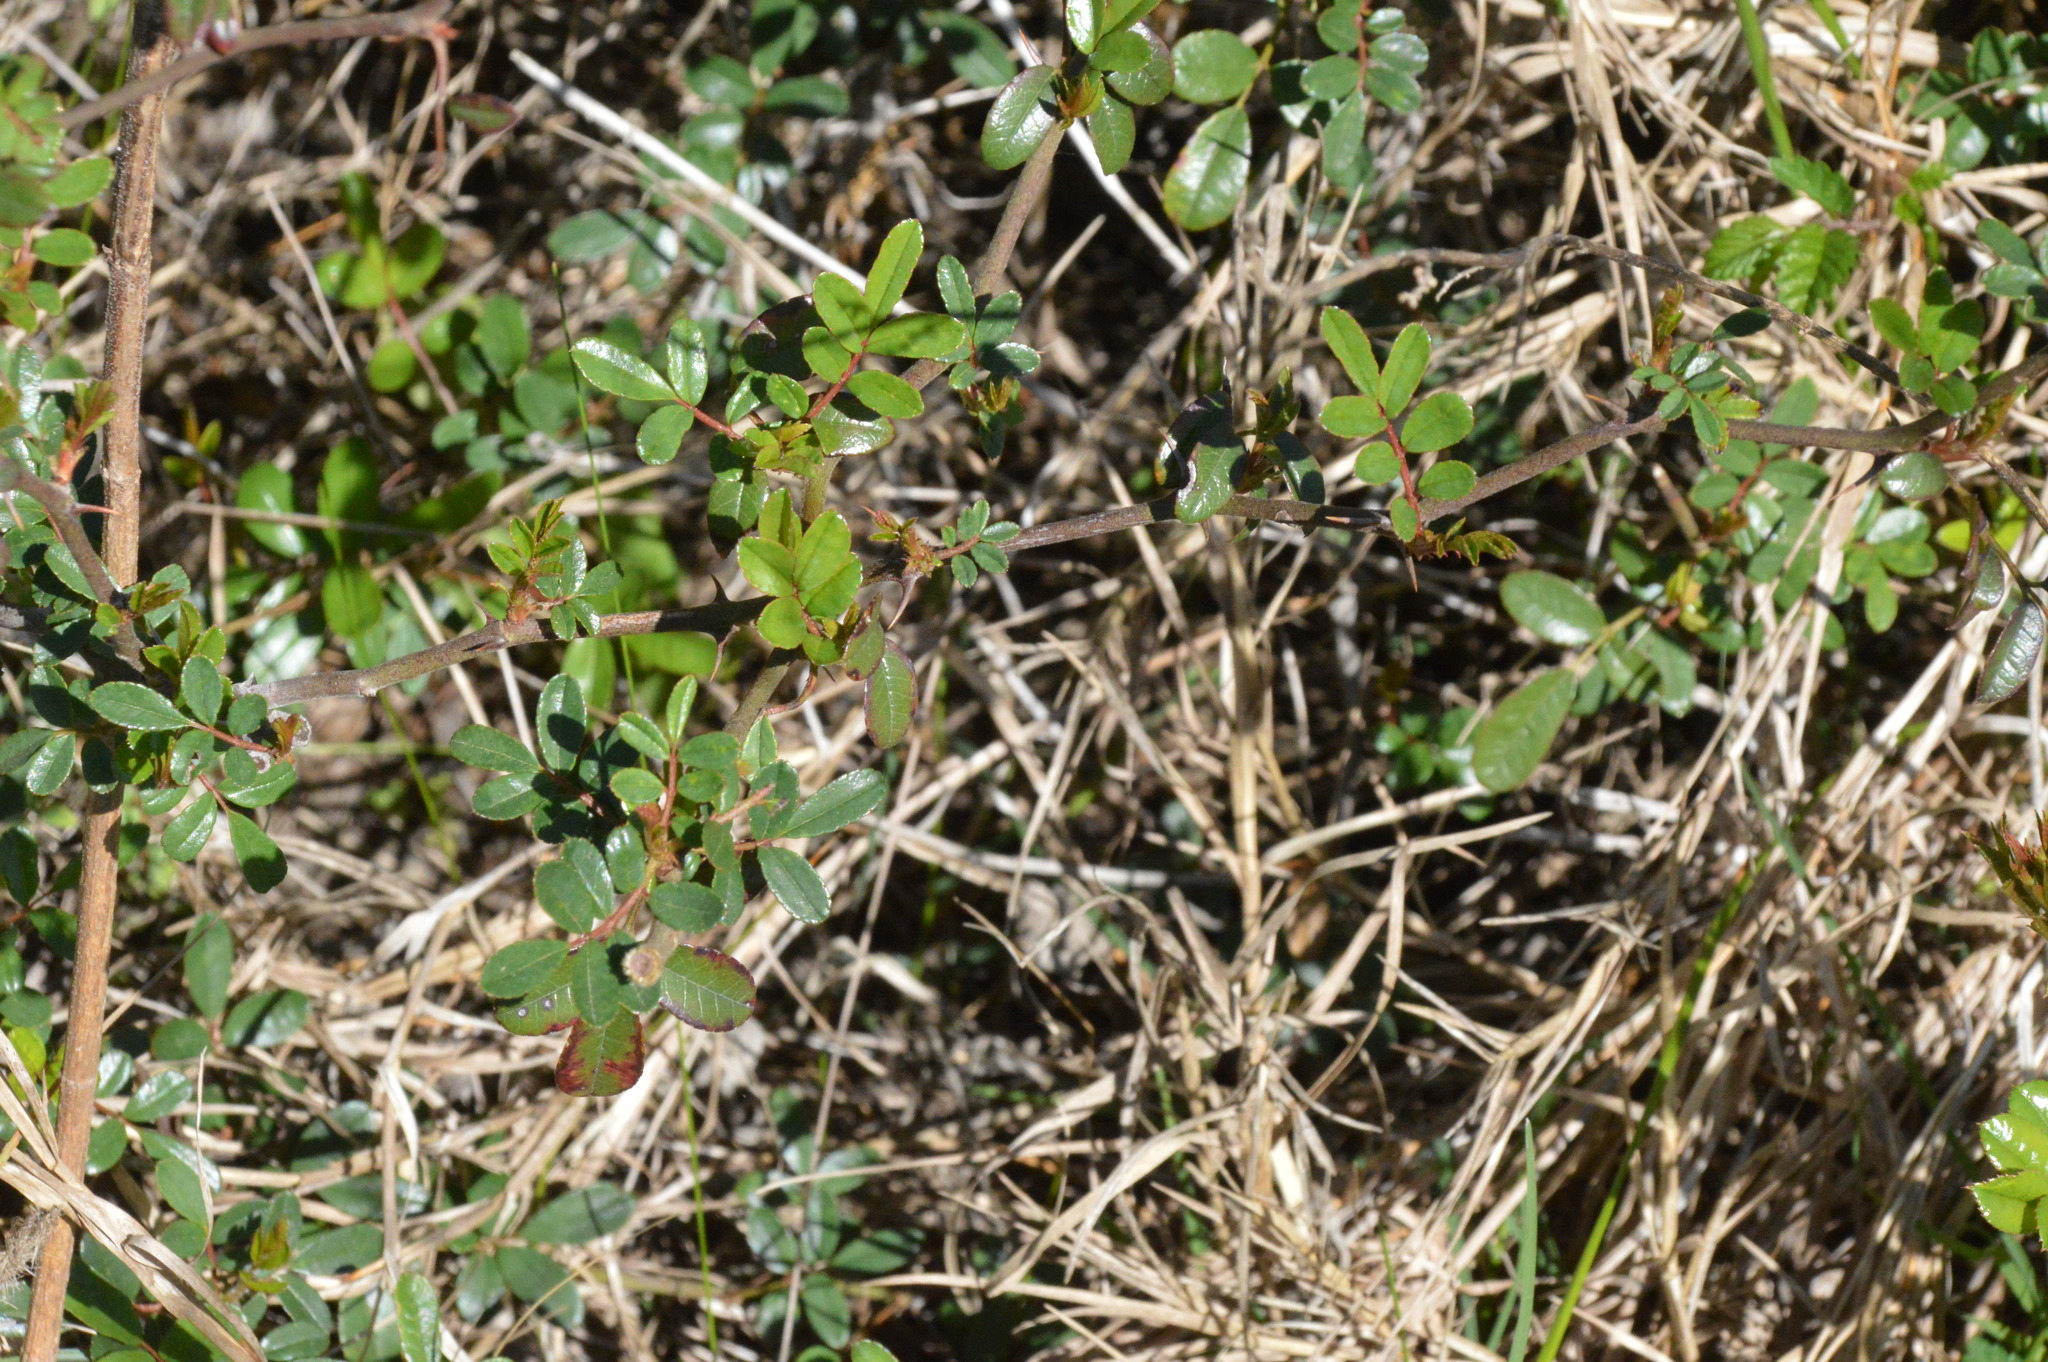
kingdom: Plantae
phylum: Tracheophyta
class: Magnoliopsida
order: Rosales
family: Rosaceae
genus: Rosa
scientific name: Rosa bracteata
